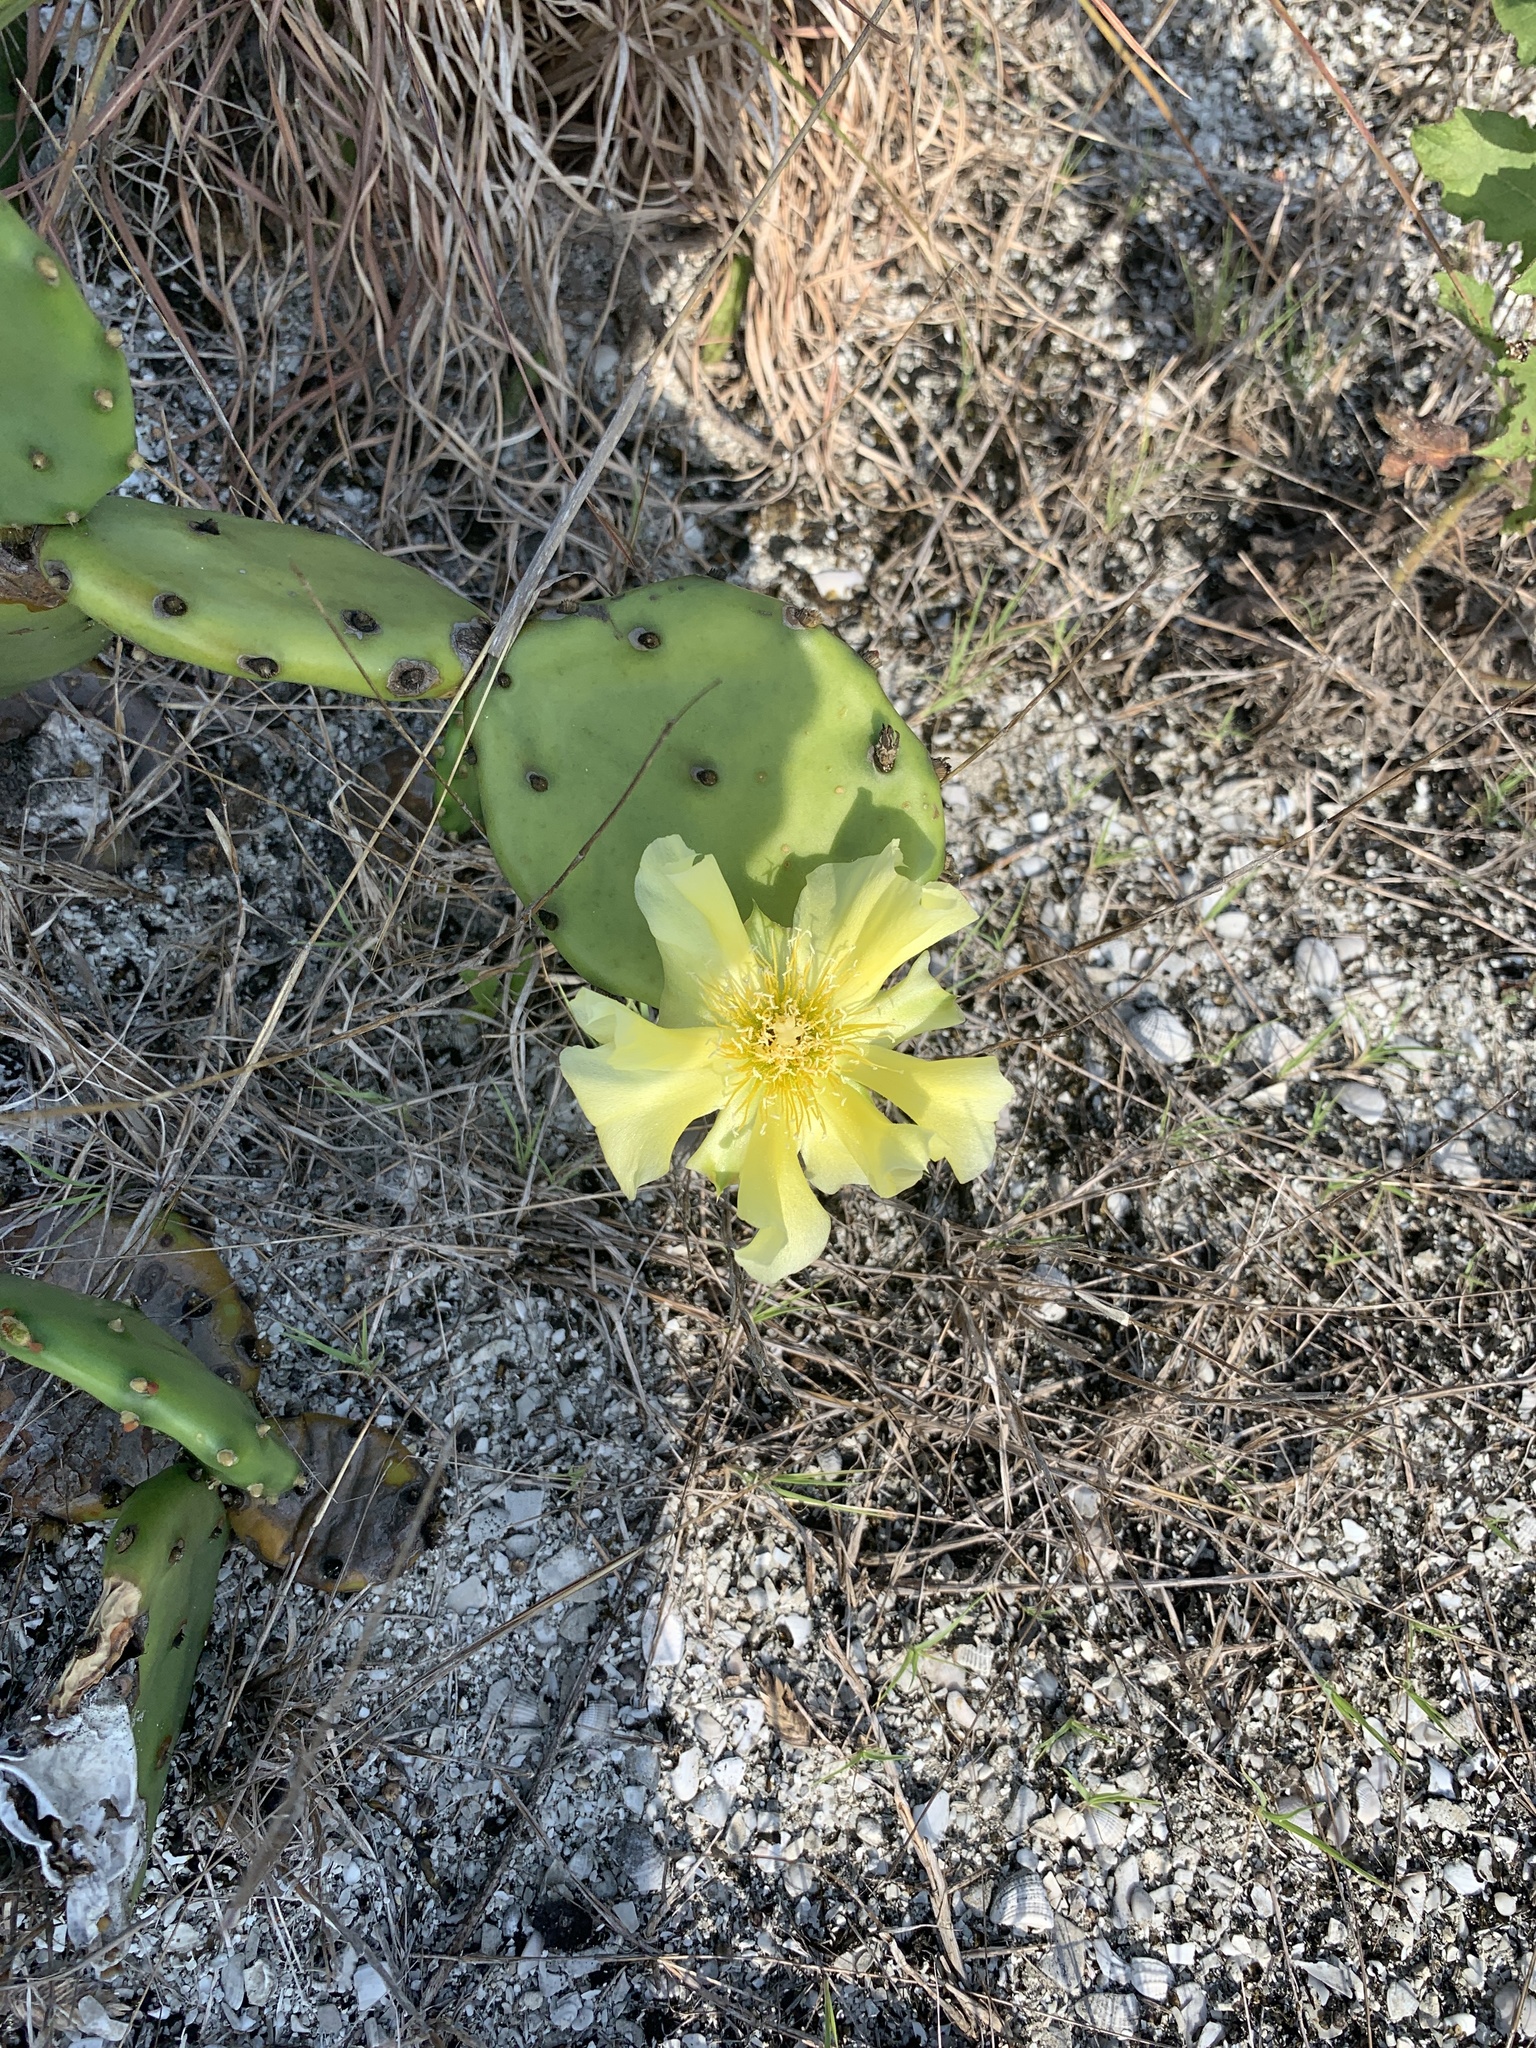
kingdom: Plantae
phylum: Tracheophyta
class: Magnoliopsida
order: Caryophyllales
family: Cactaceae
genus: Opuntia
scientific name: Opuntia humifusa
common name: Eastern prickly-pear
